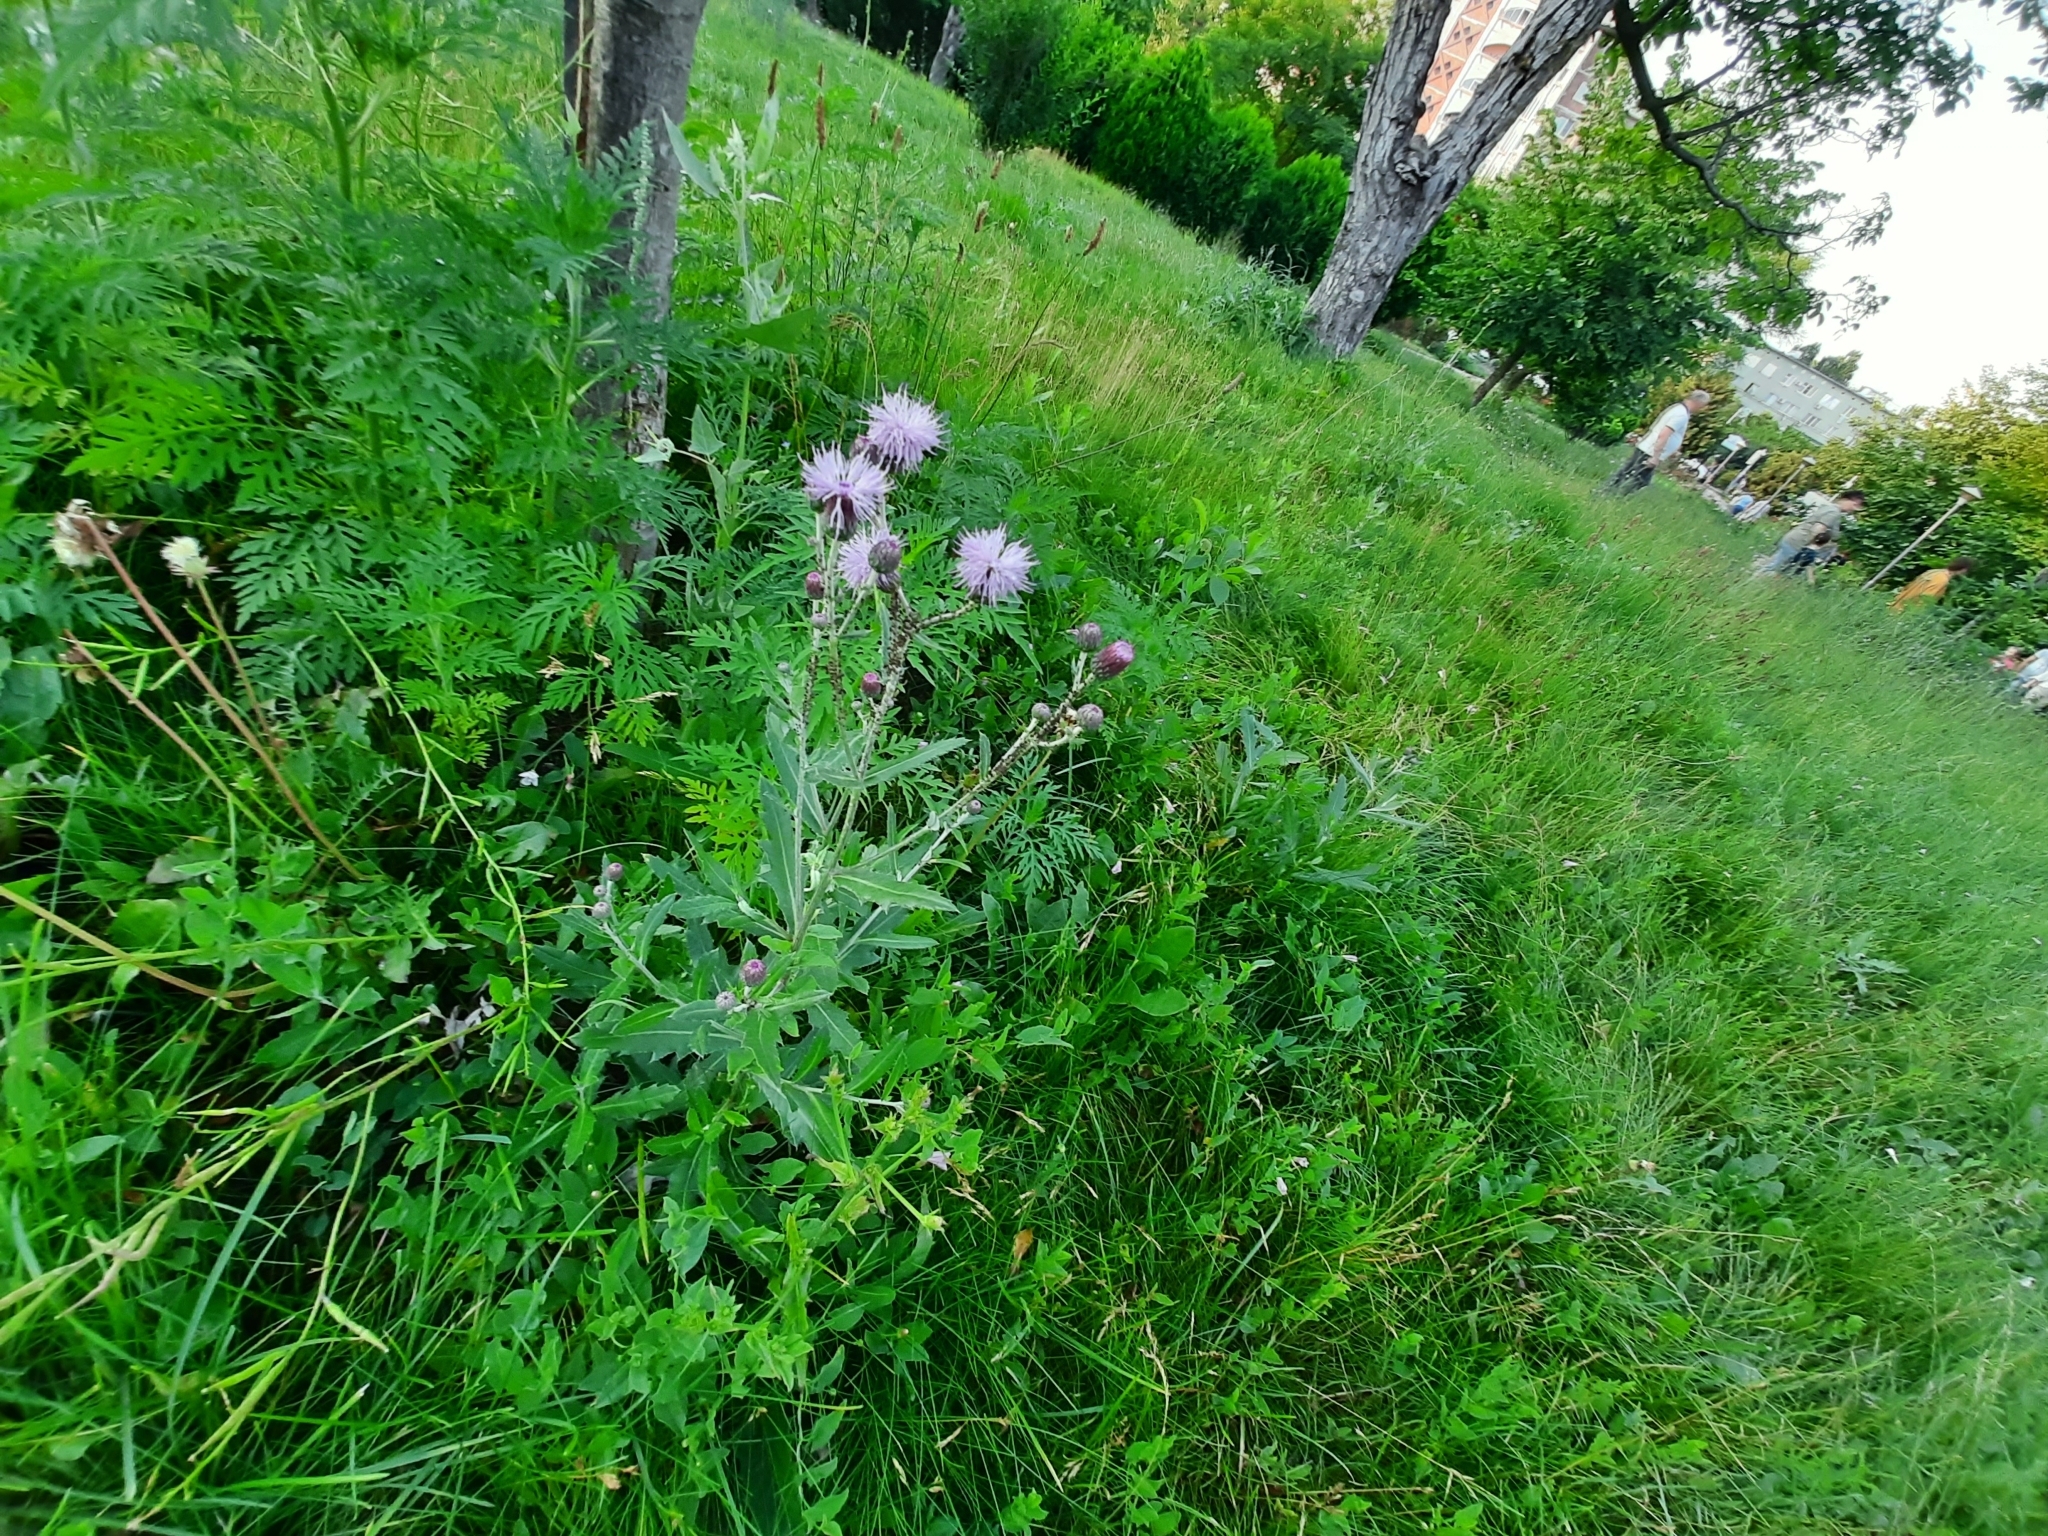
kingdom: Plantae
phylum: Tracheophyta
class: Magnoliopsida
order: Asterales
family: Asteraceae
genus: Cirsium
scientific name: Cirsium arvense
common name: Creeping thistle
